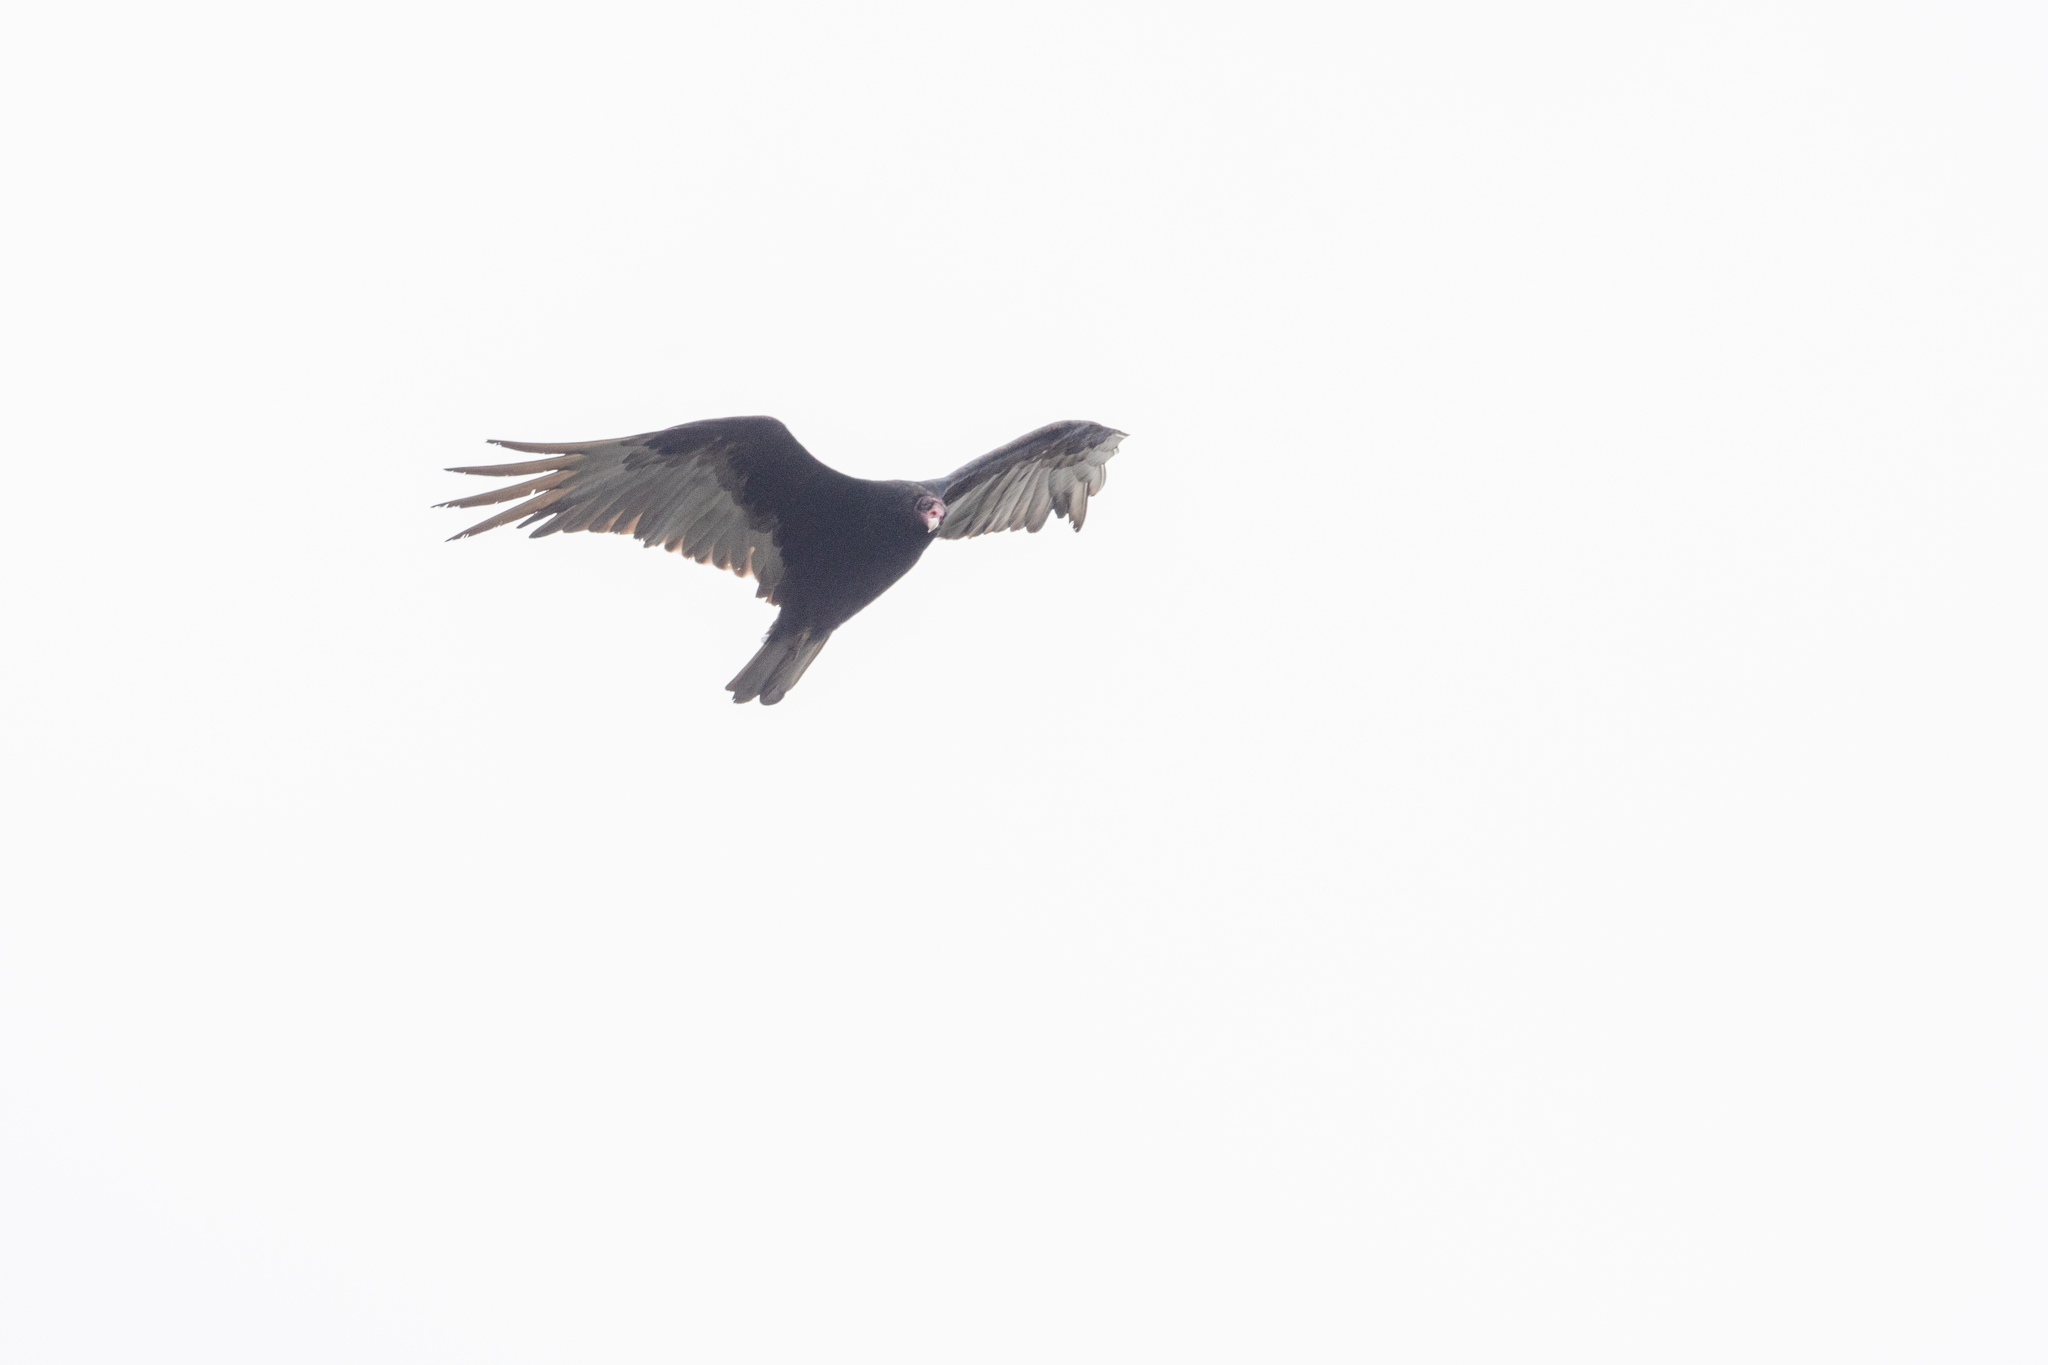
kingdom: Animalia
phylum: Chordata
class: Aves
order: Accipitriformes
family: Cathartidae
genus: Cathartes
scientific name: Cathartes aura
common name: Turkey vulture
